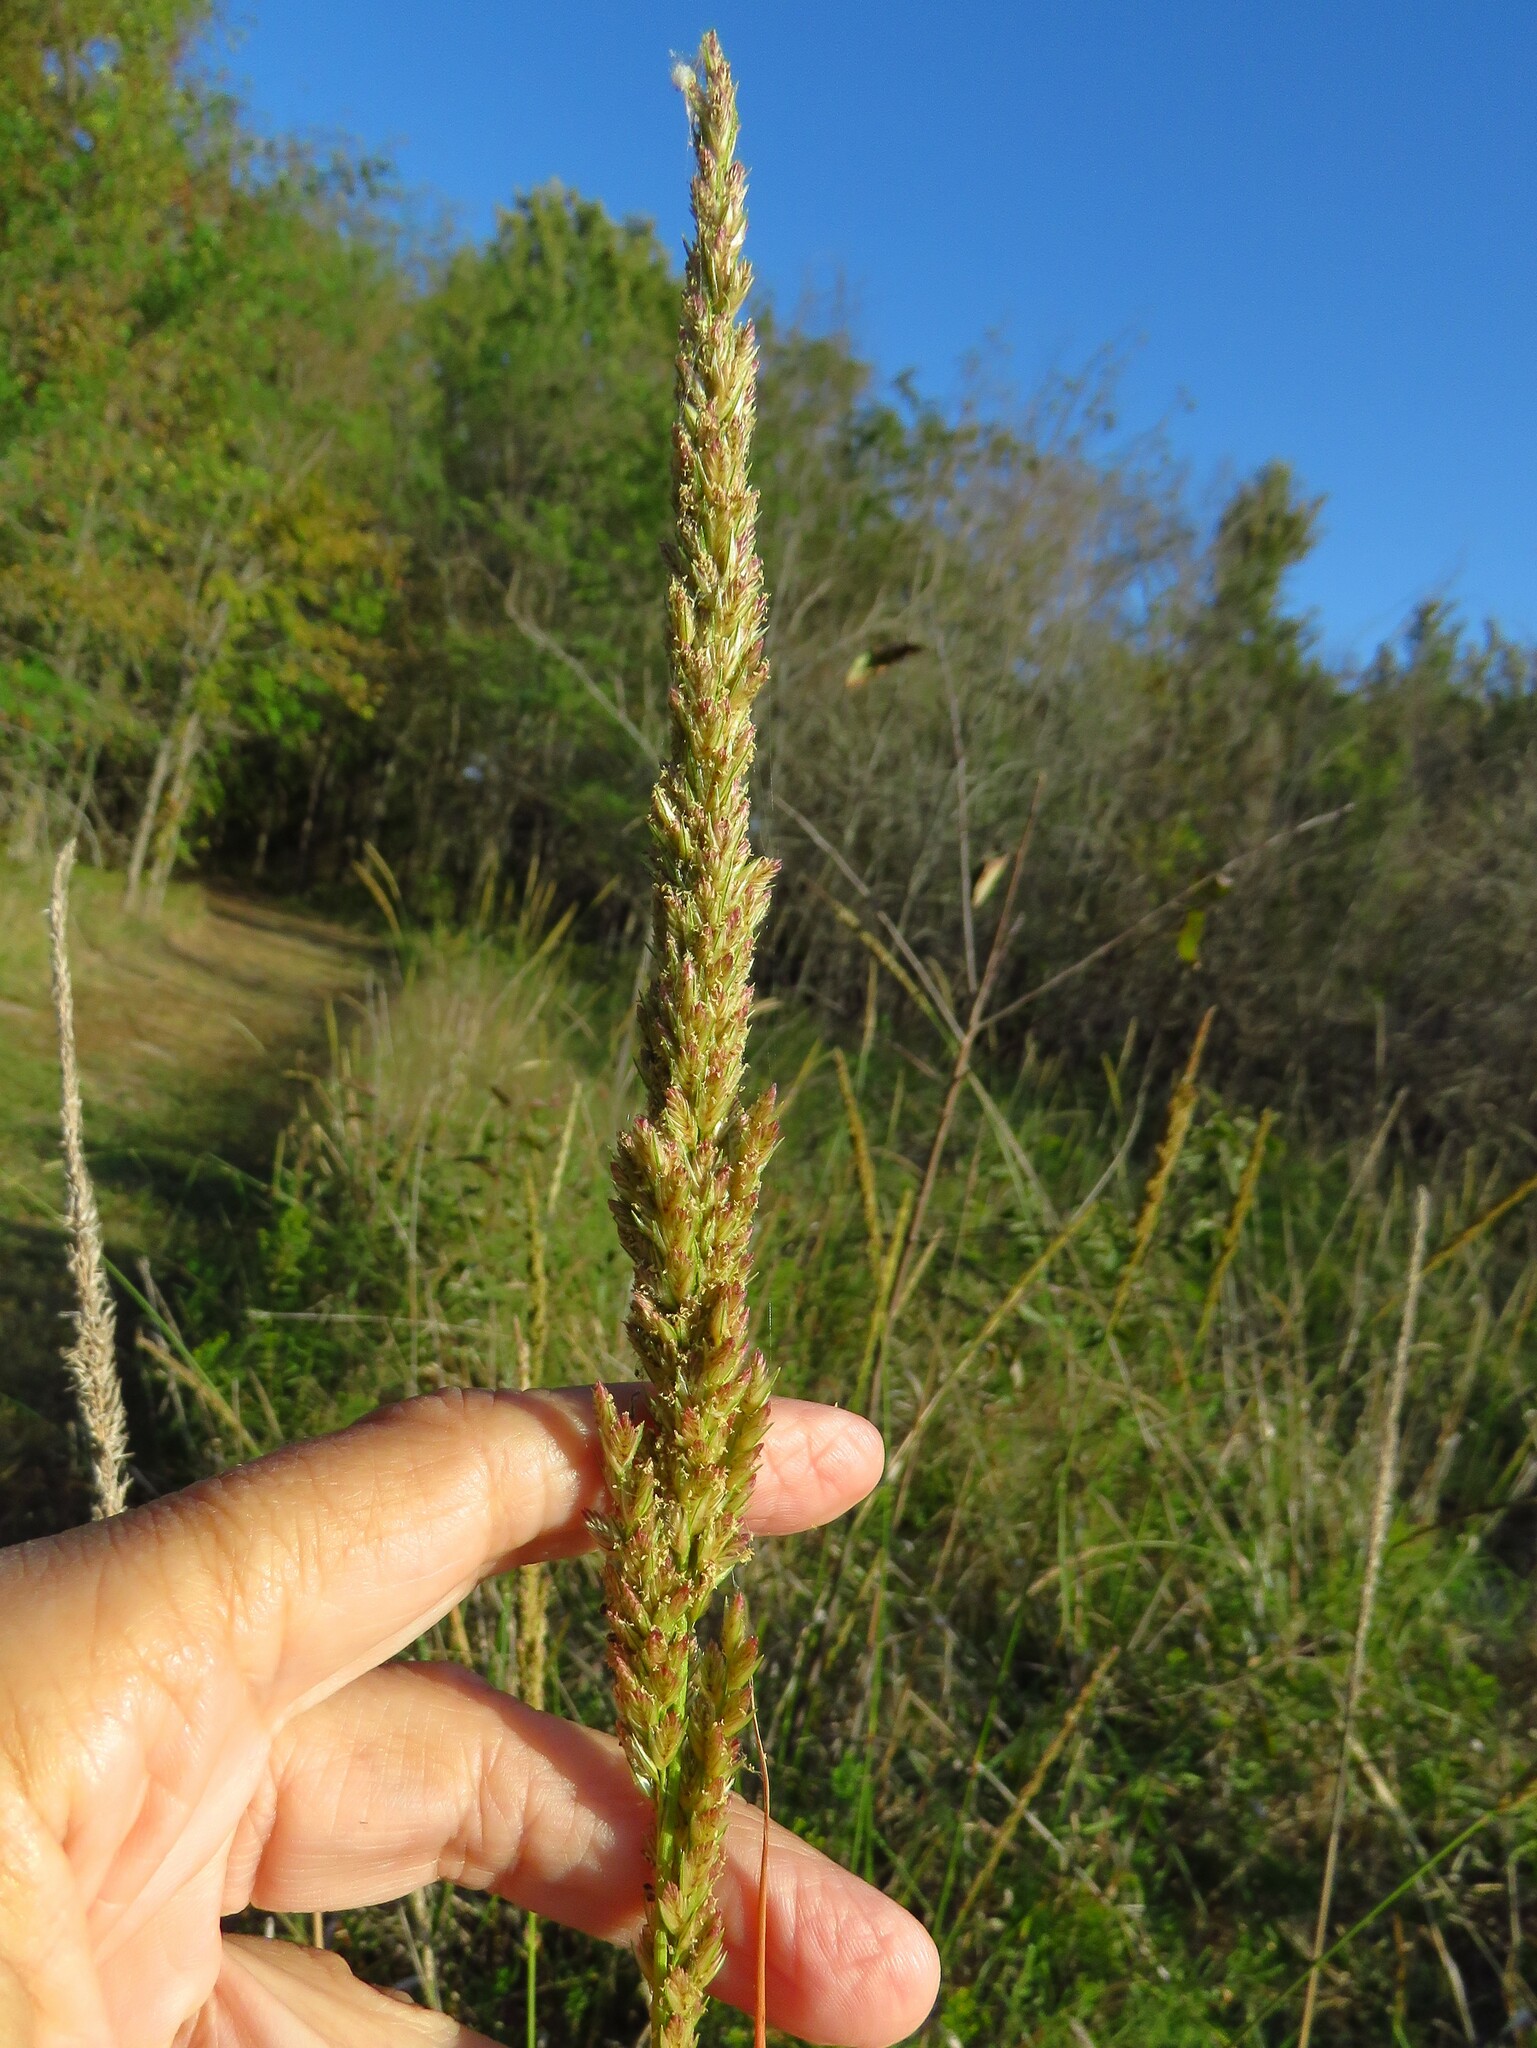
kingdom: Plantae
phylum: Tracheophyta
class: Liliopsida
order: Poales
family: Poaceae
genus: Tridens
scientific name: Tridens strictus
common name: Long-spike tridens
